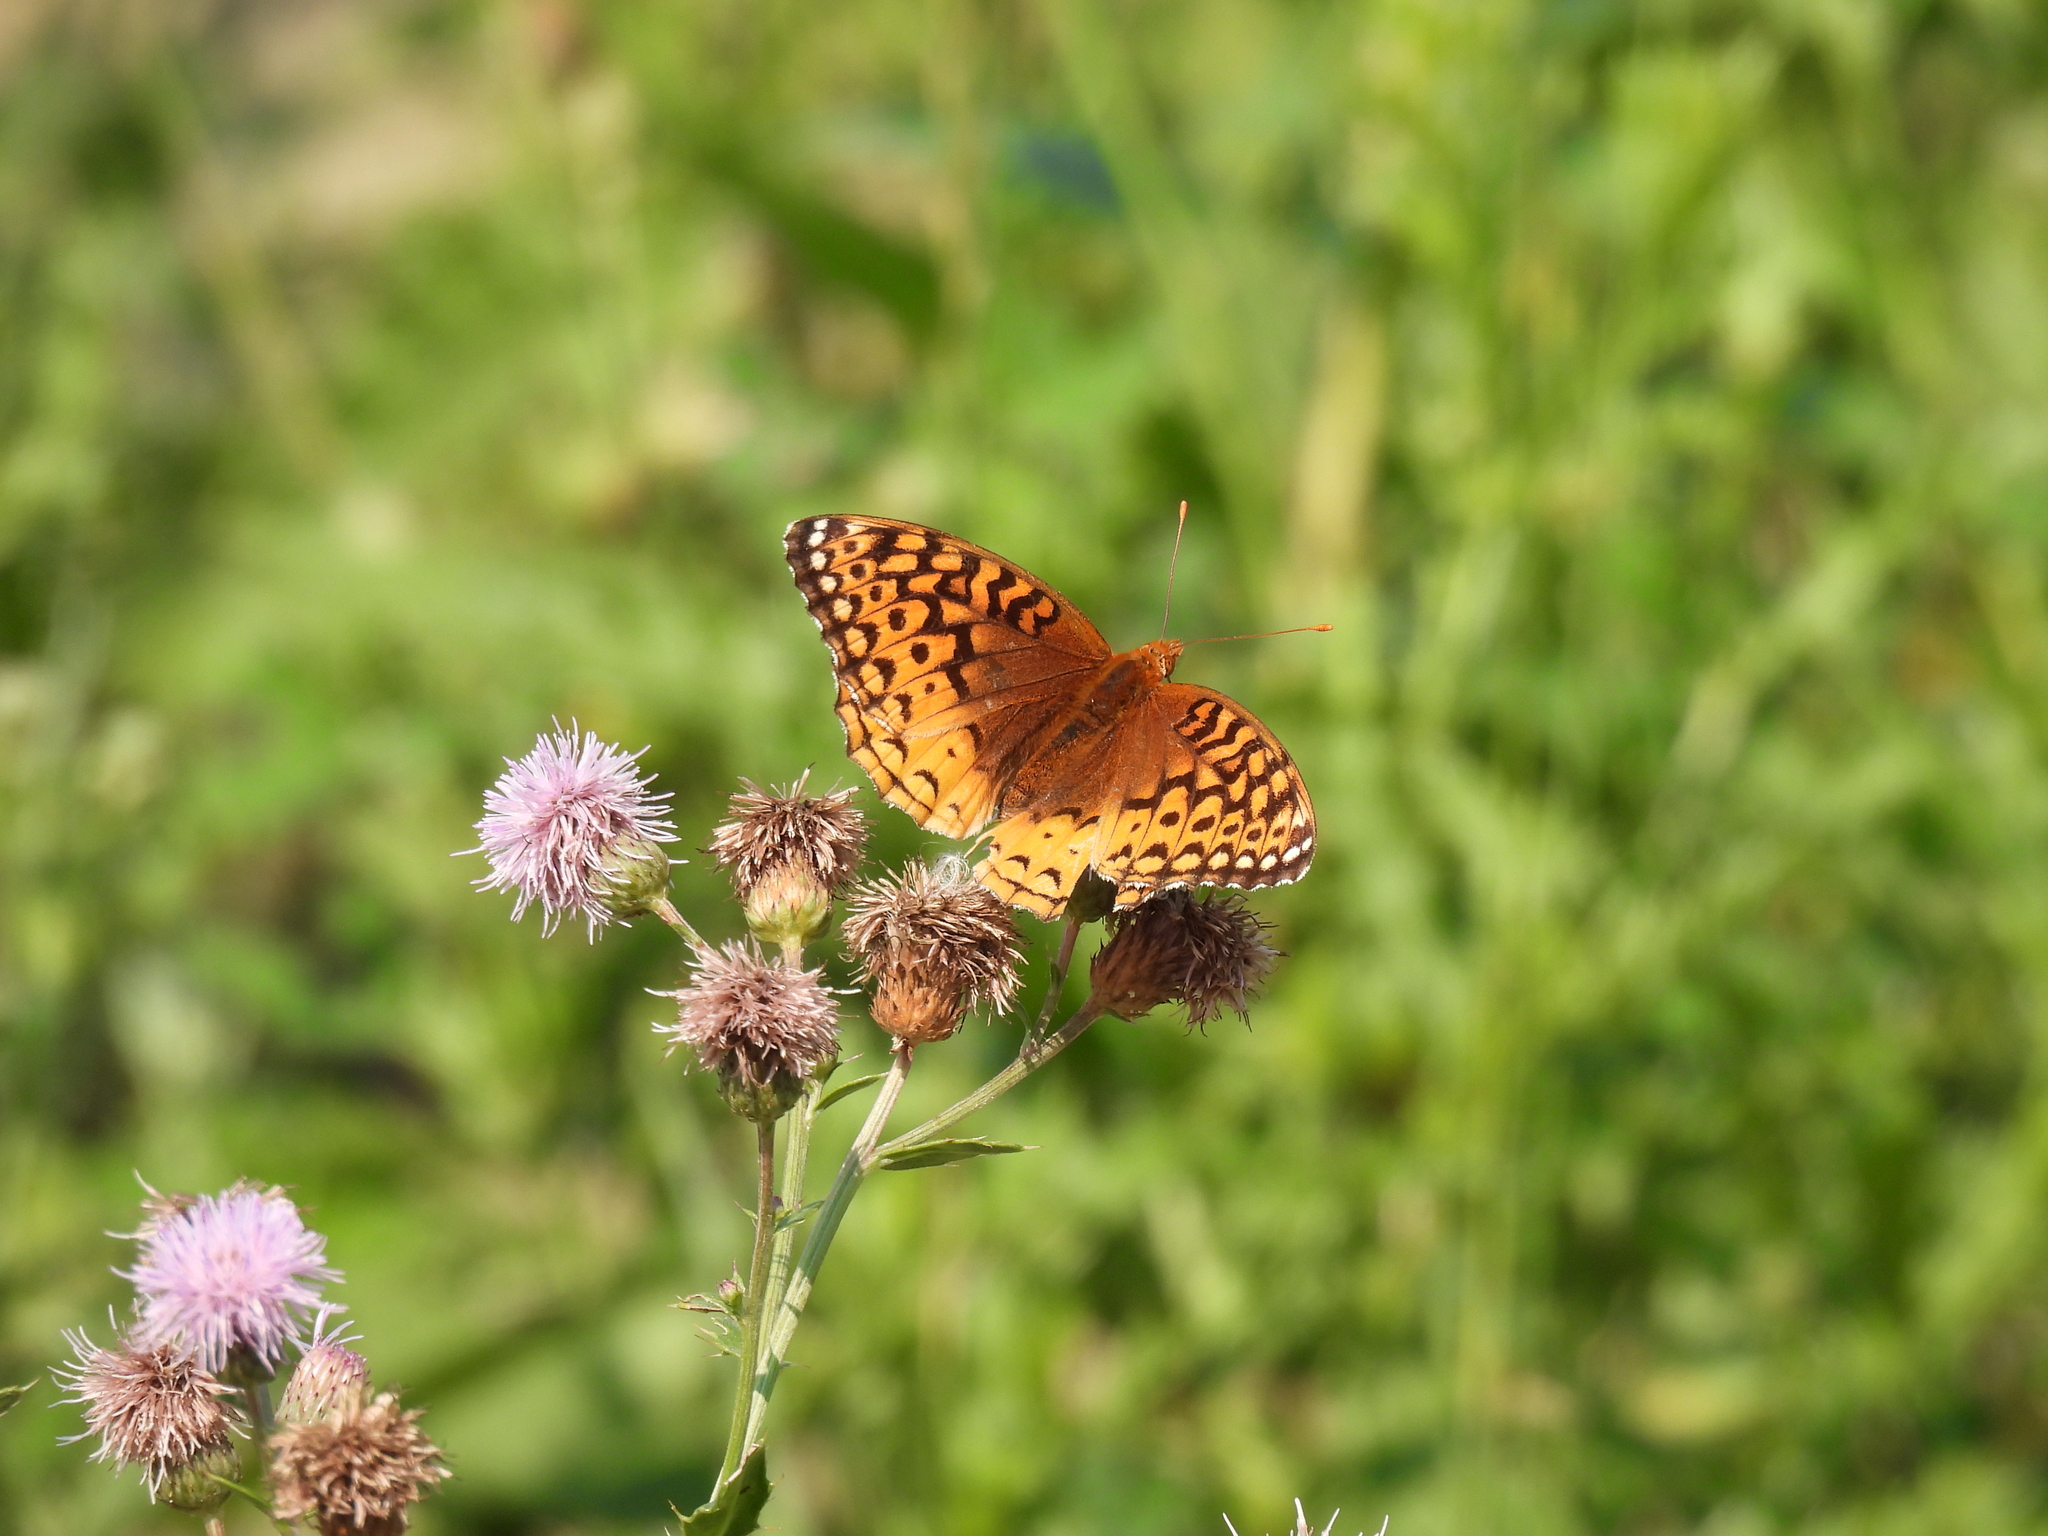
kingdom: Animalia
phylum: Arthropoda
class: Insecta
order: Lepidoptera
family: Nymphalidae
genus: Speyeria
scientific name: Speyeria cybele
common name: Great spangled fritillary
